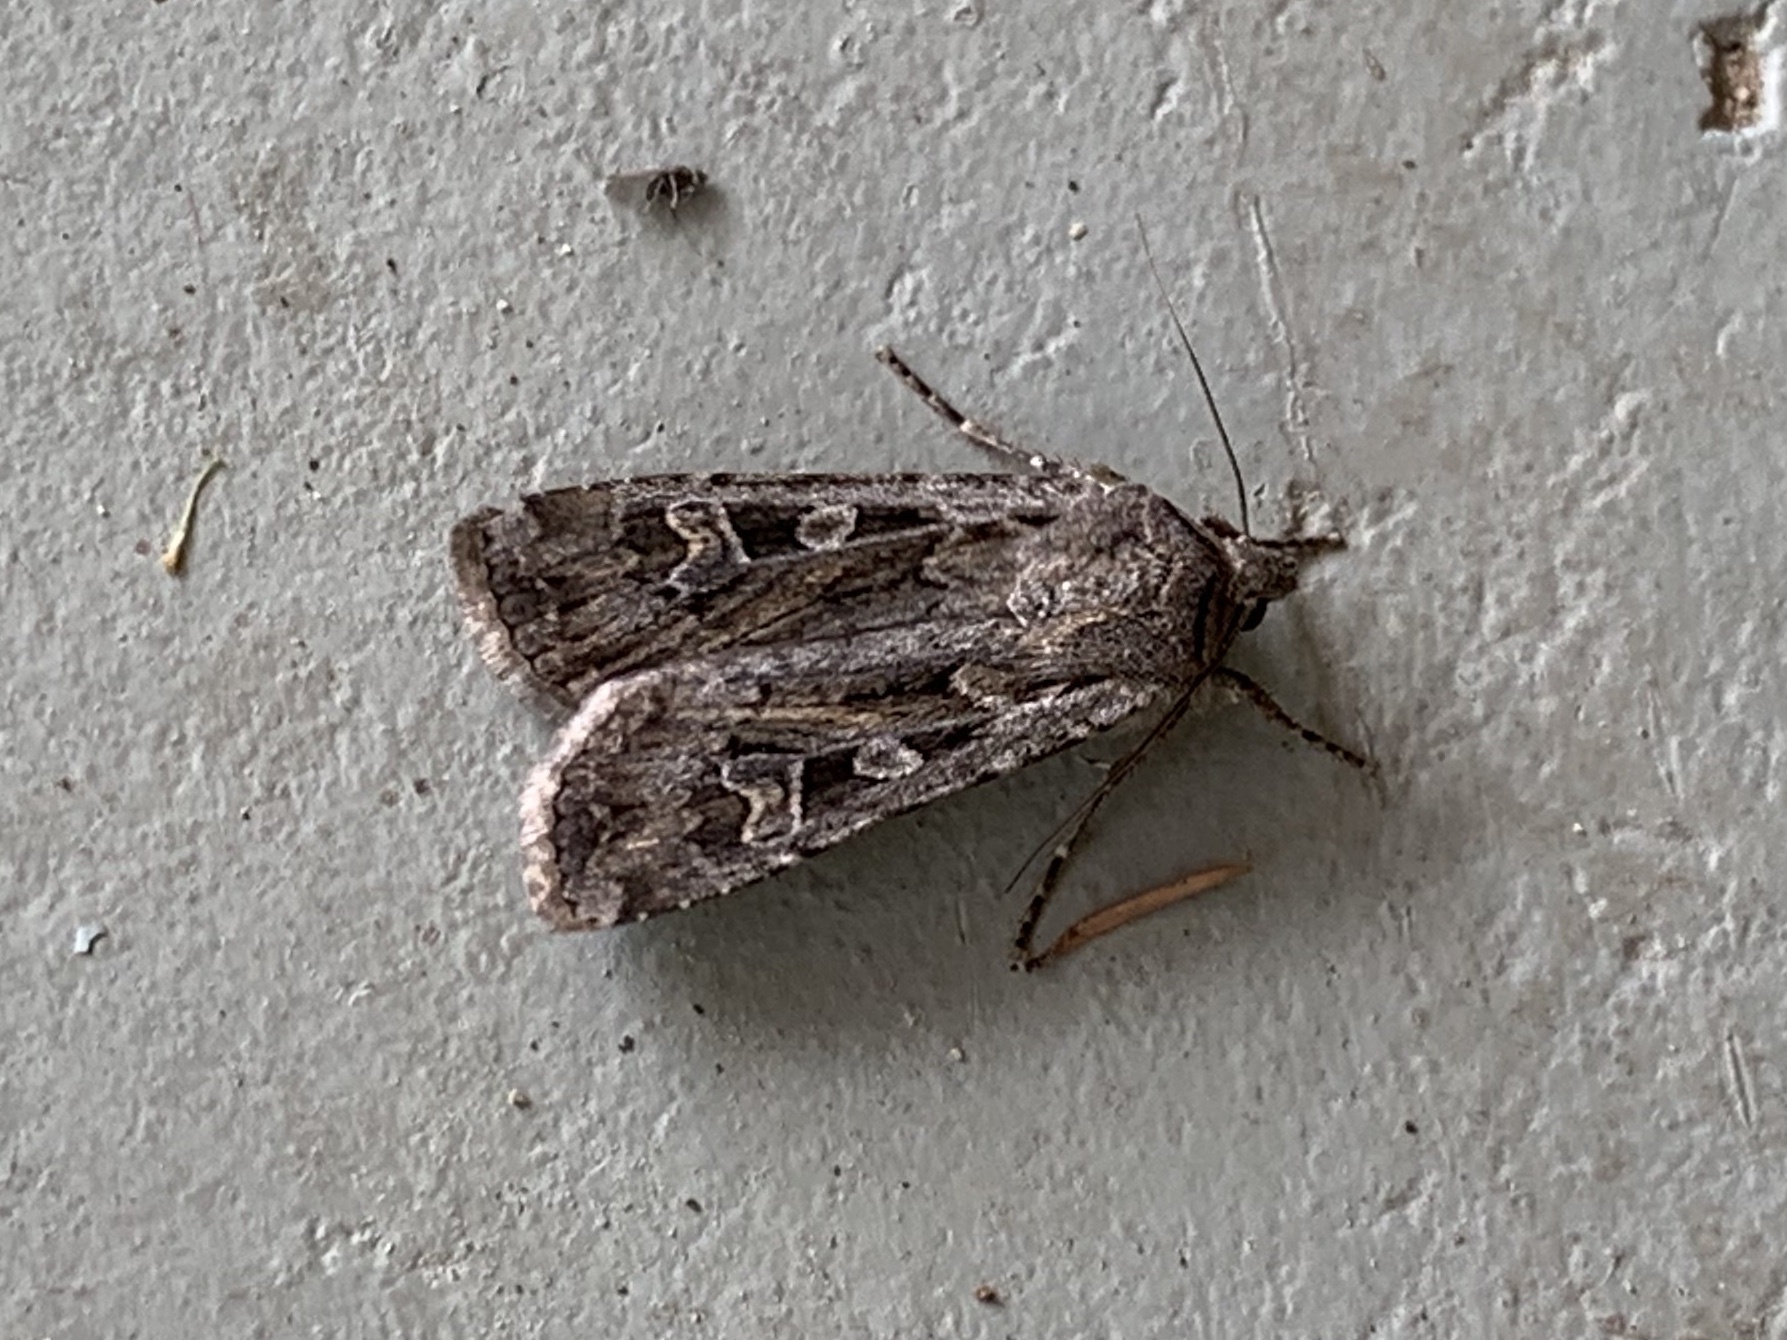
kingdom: Animalia
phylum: Arthropoda
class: Insecta
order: Lepidoptera
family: Noctuidae
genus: Euxoa
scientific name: Euxoa auxiliaris
